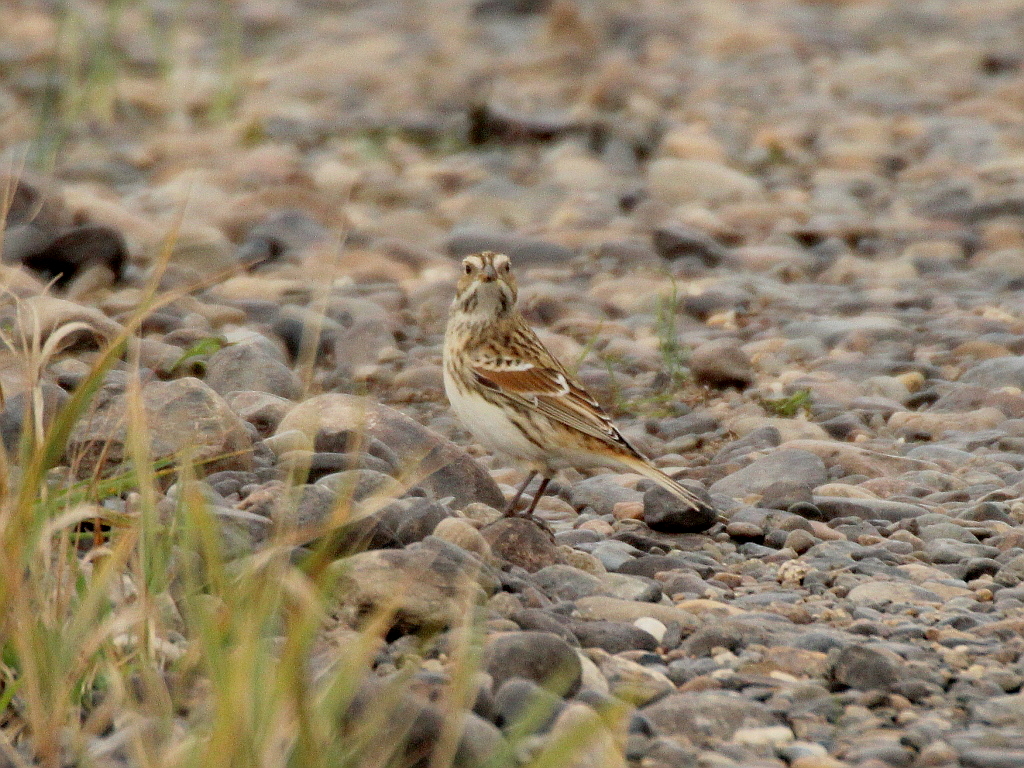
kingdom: Animalia
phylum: Chordata
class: Aves
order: Passeriformes
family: Calcariidae
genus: Calcarius
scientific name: Calcarius lapponicus
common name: Lapland longspur
